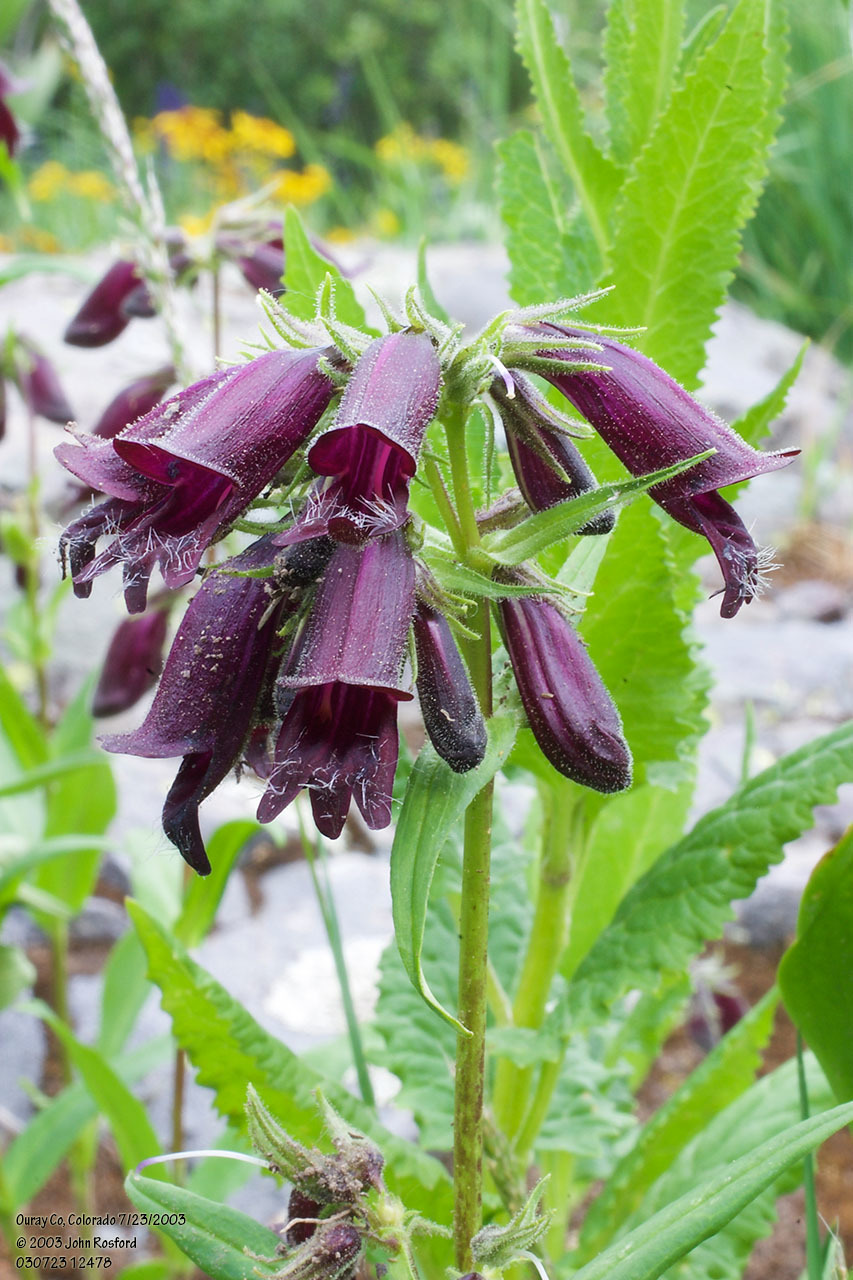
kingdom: Plantae
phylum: Tracheophyta
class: Magnoliopsida
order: Lamiales
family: Plantaginaceae
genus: Penstemon
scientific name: Penstemon whippleanus
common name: Whipple's penstemon
